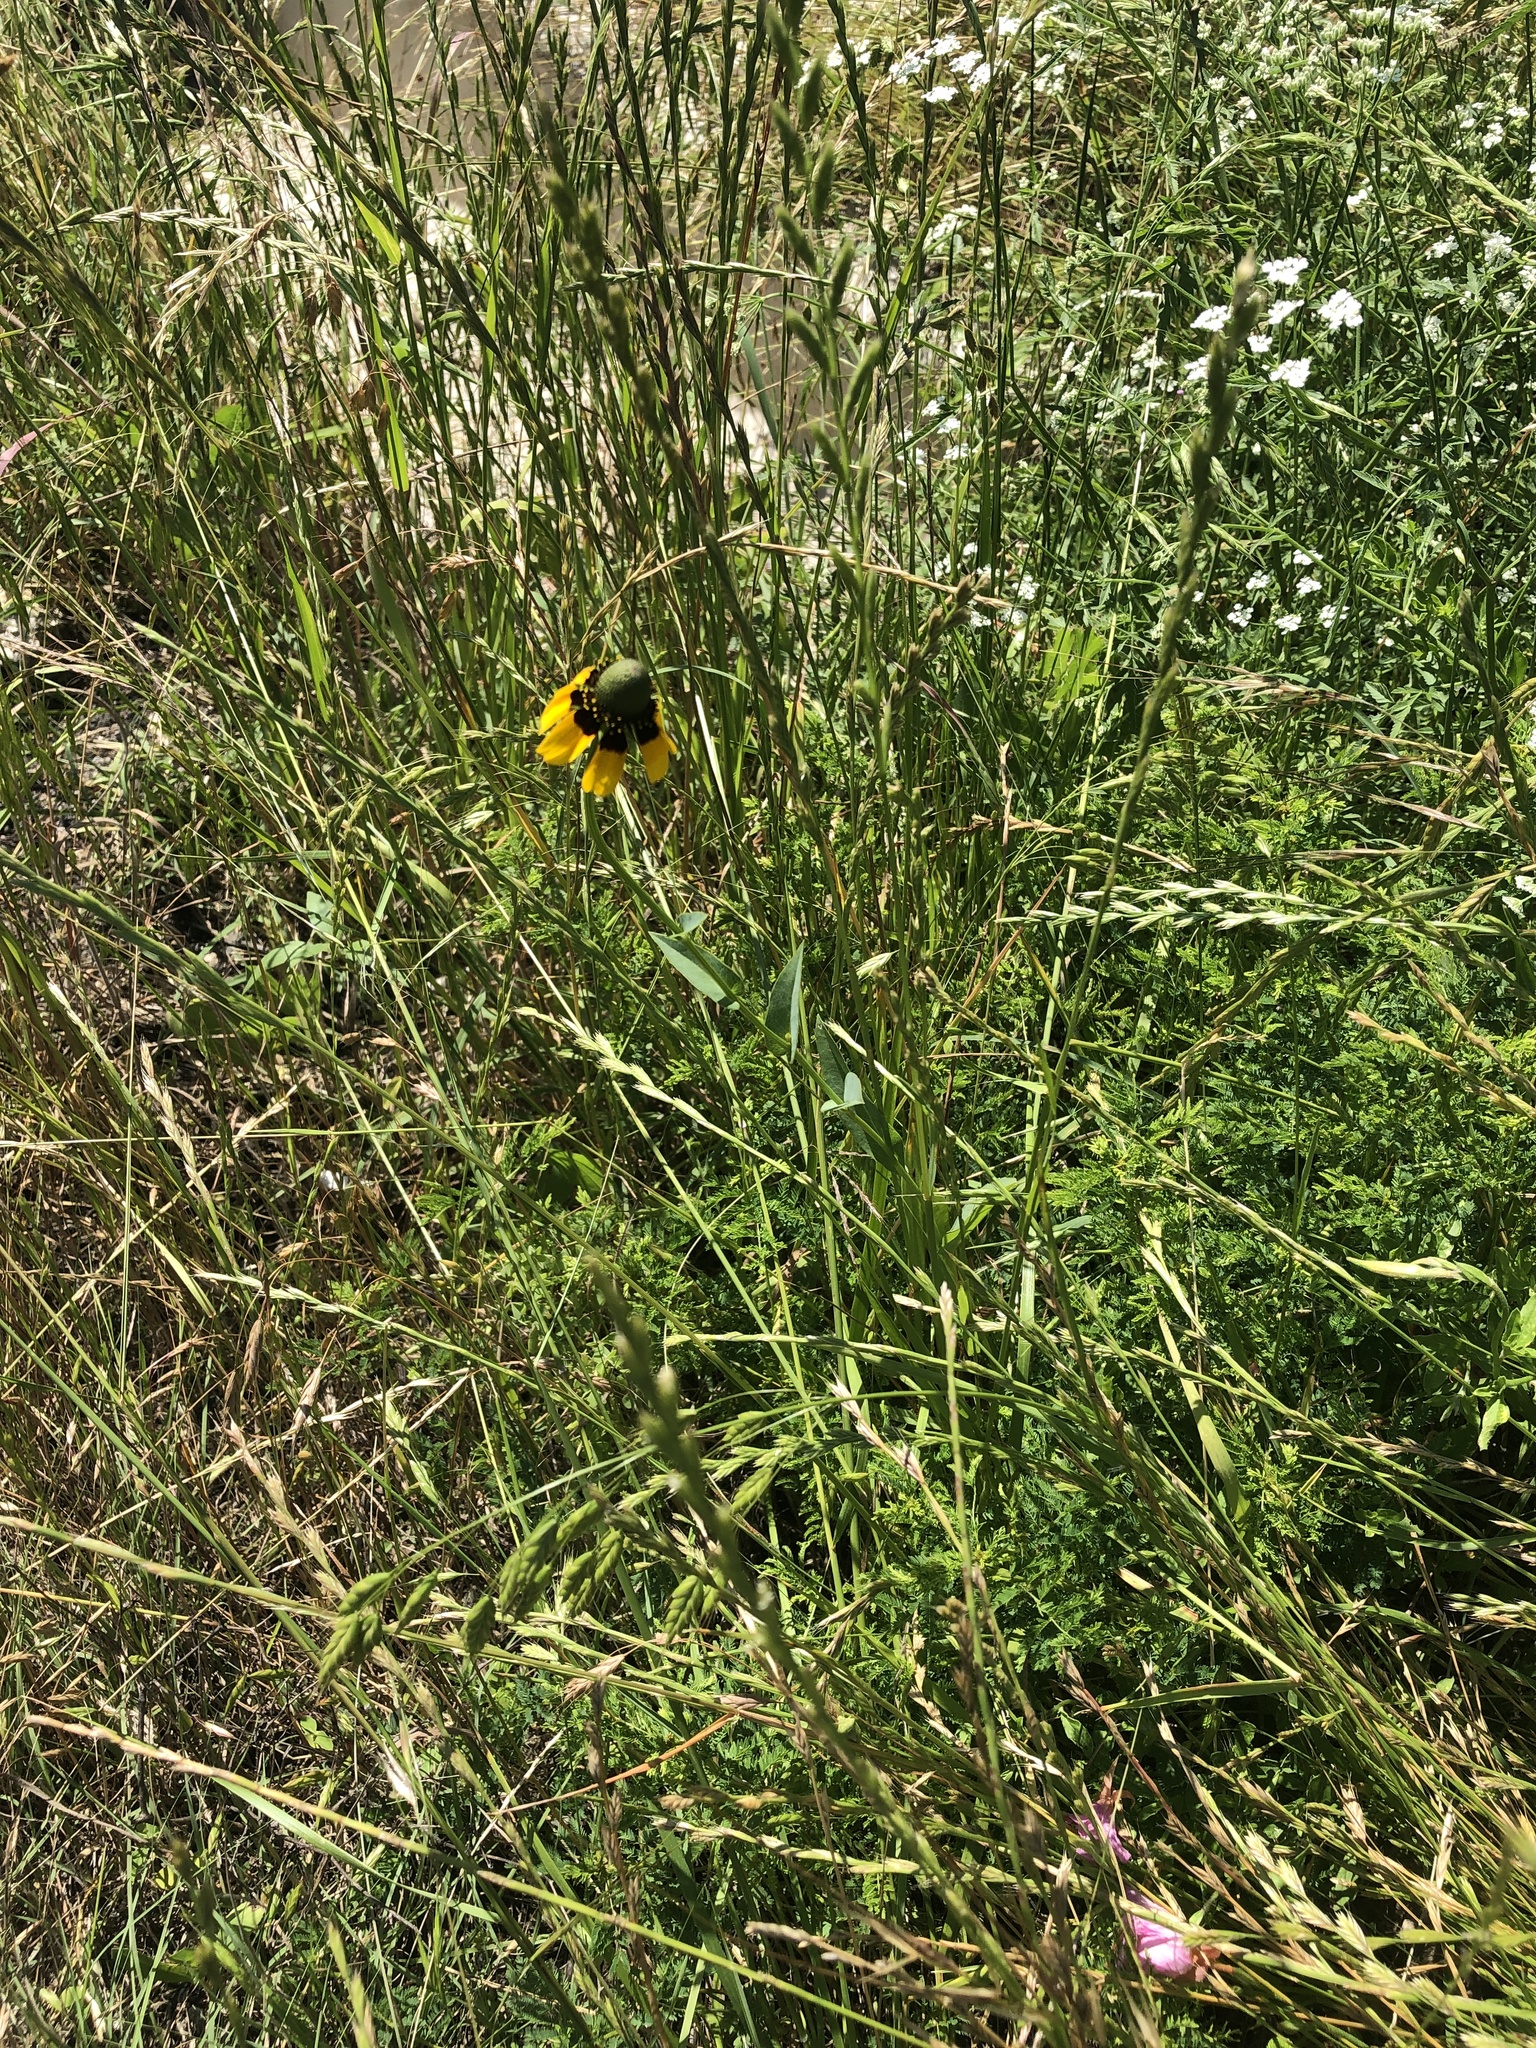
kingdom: Plantae
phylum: Tracheophyta
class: Magnoliopsida
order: Asterales
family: Asteraceae
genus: Rudbeckia
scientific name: Rudbeckia amplexicaulis
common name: Clasping-leaf coneflower
